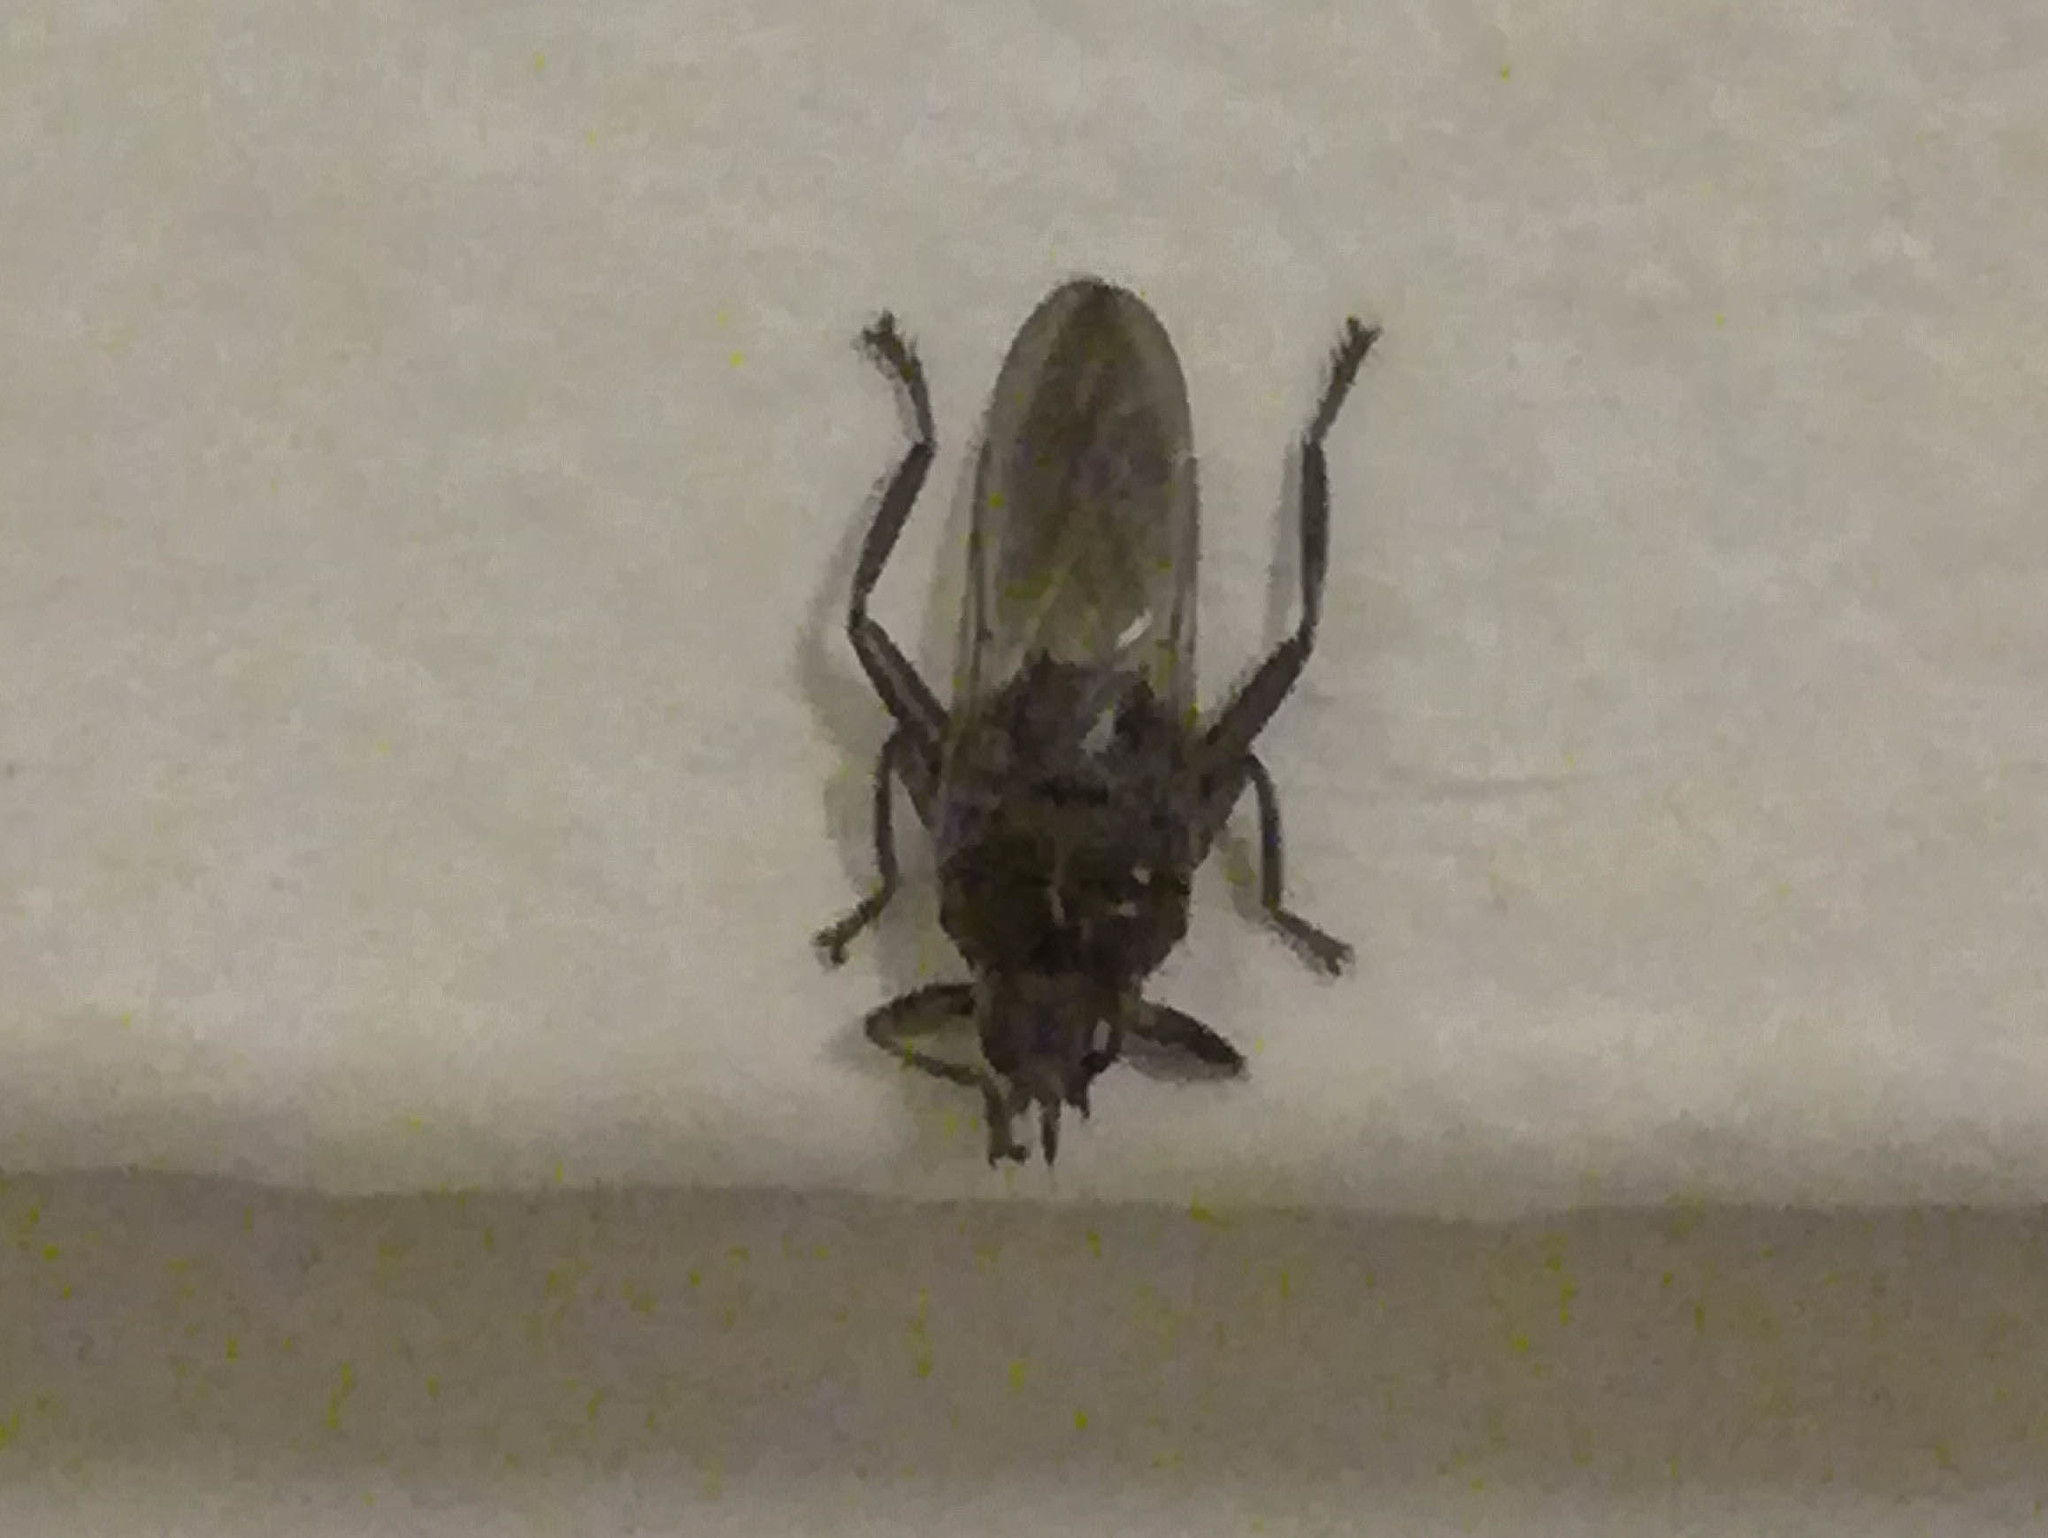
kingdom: Animalia
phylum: Arthropoda
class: Insecta
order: Diptera
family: Hippoboscidae
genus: Pseudolynchia
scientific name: Pseudolynchia canariensis
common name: Louse fly
